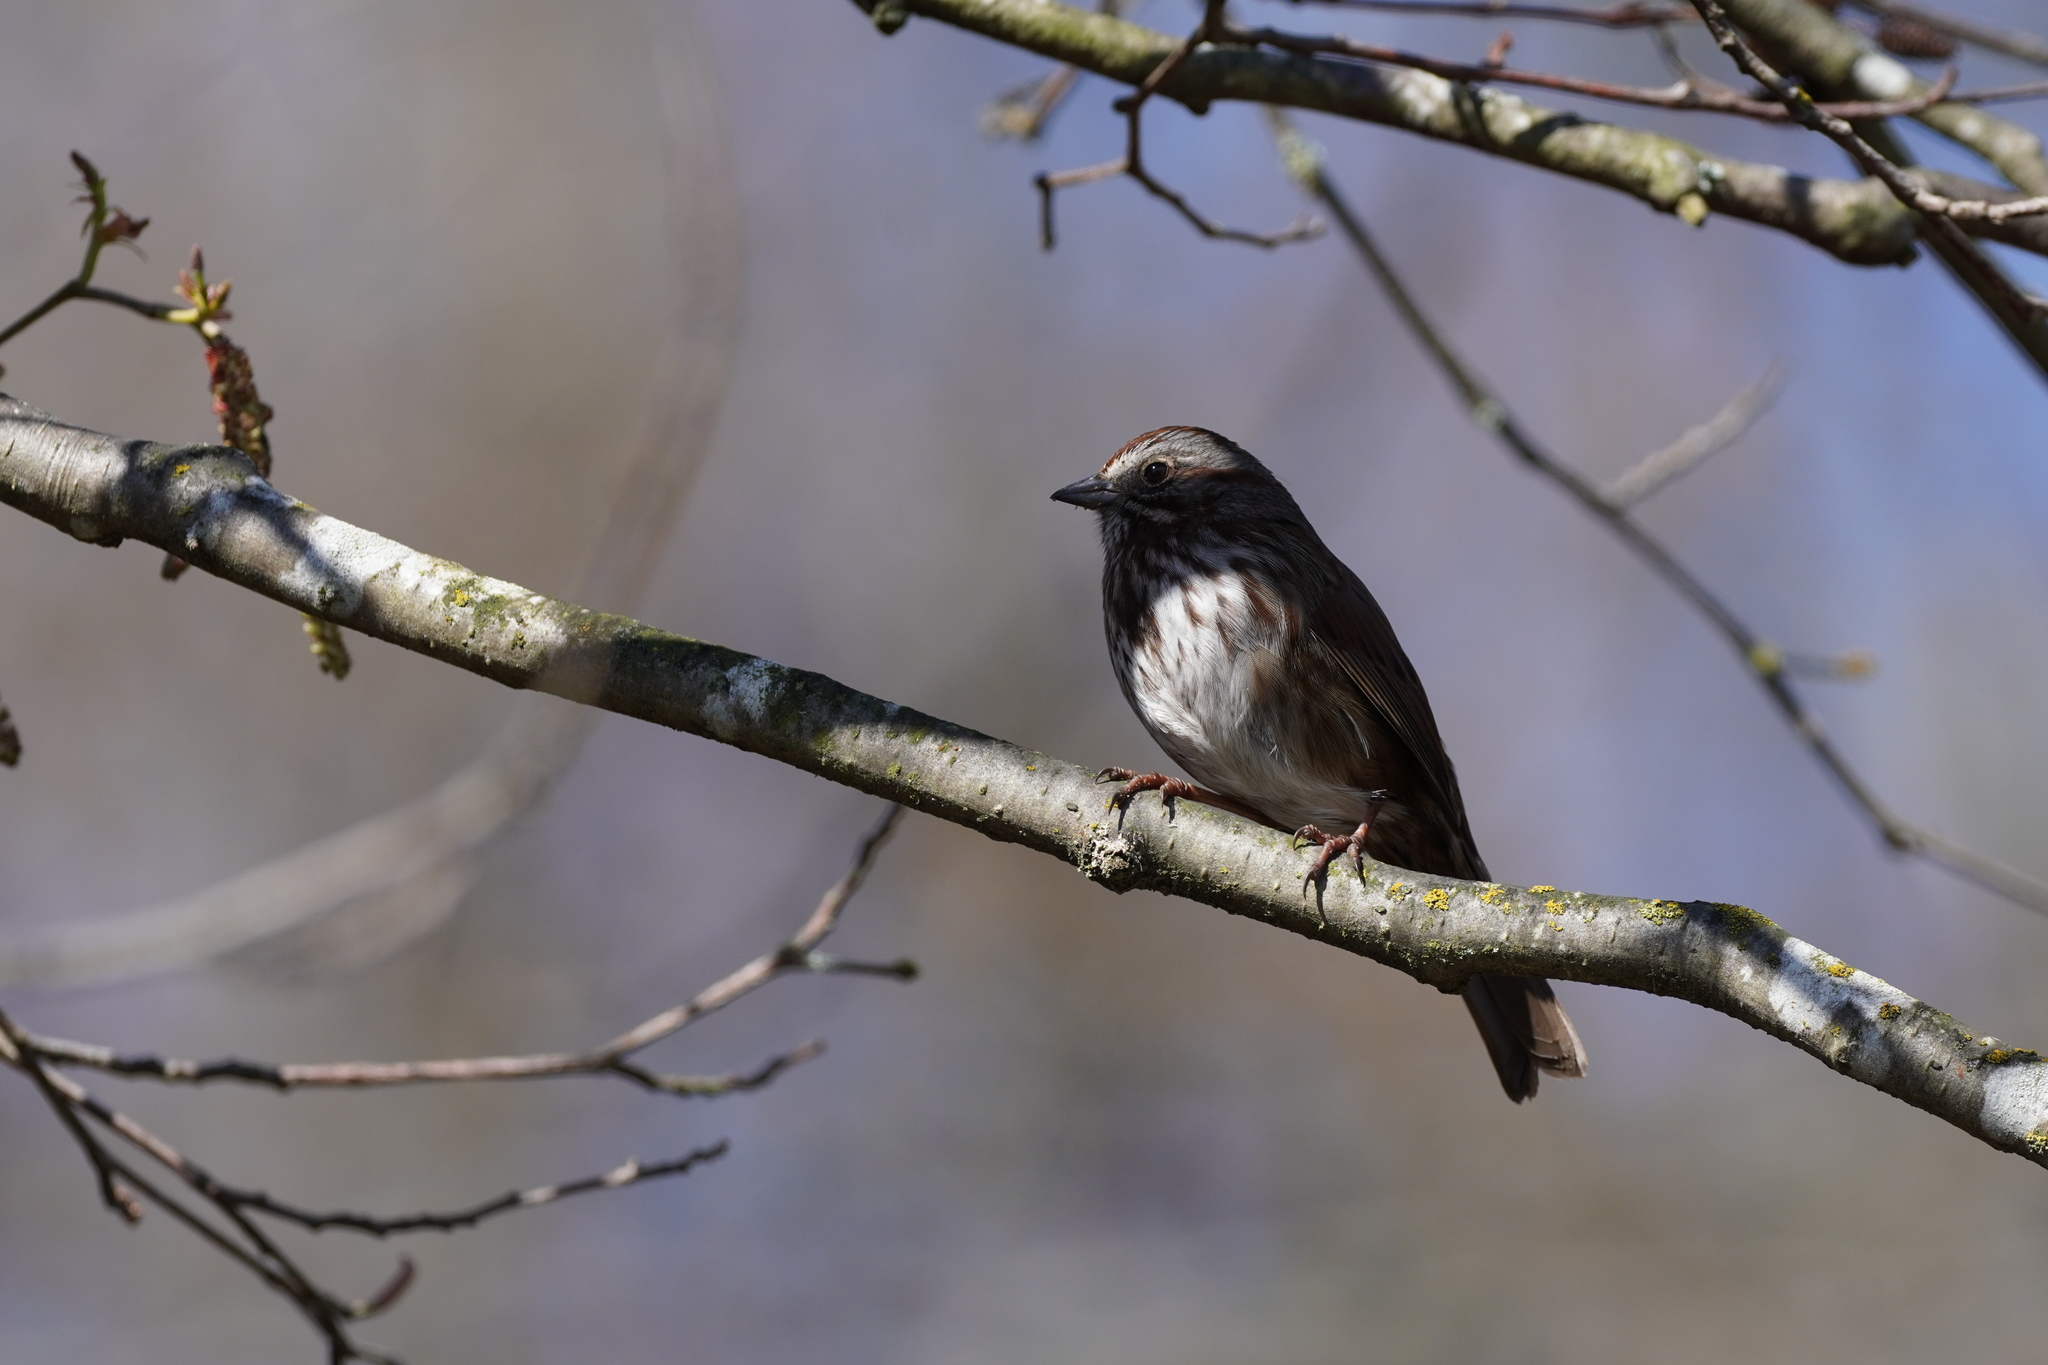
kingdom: Animalia
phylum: Chordata
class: Aves
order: Passeriformes
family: Passerellidae
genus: Melospiza
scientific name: Melospiza melodia
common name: Song sparrow
